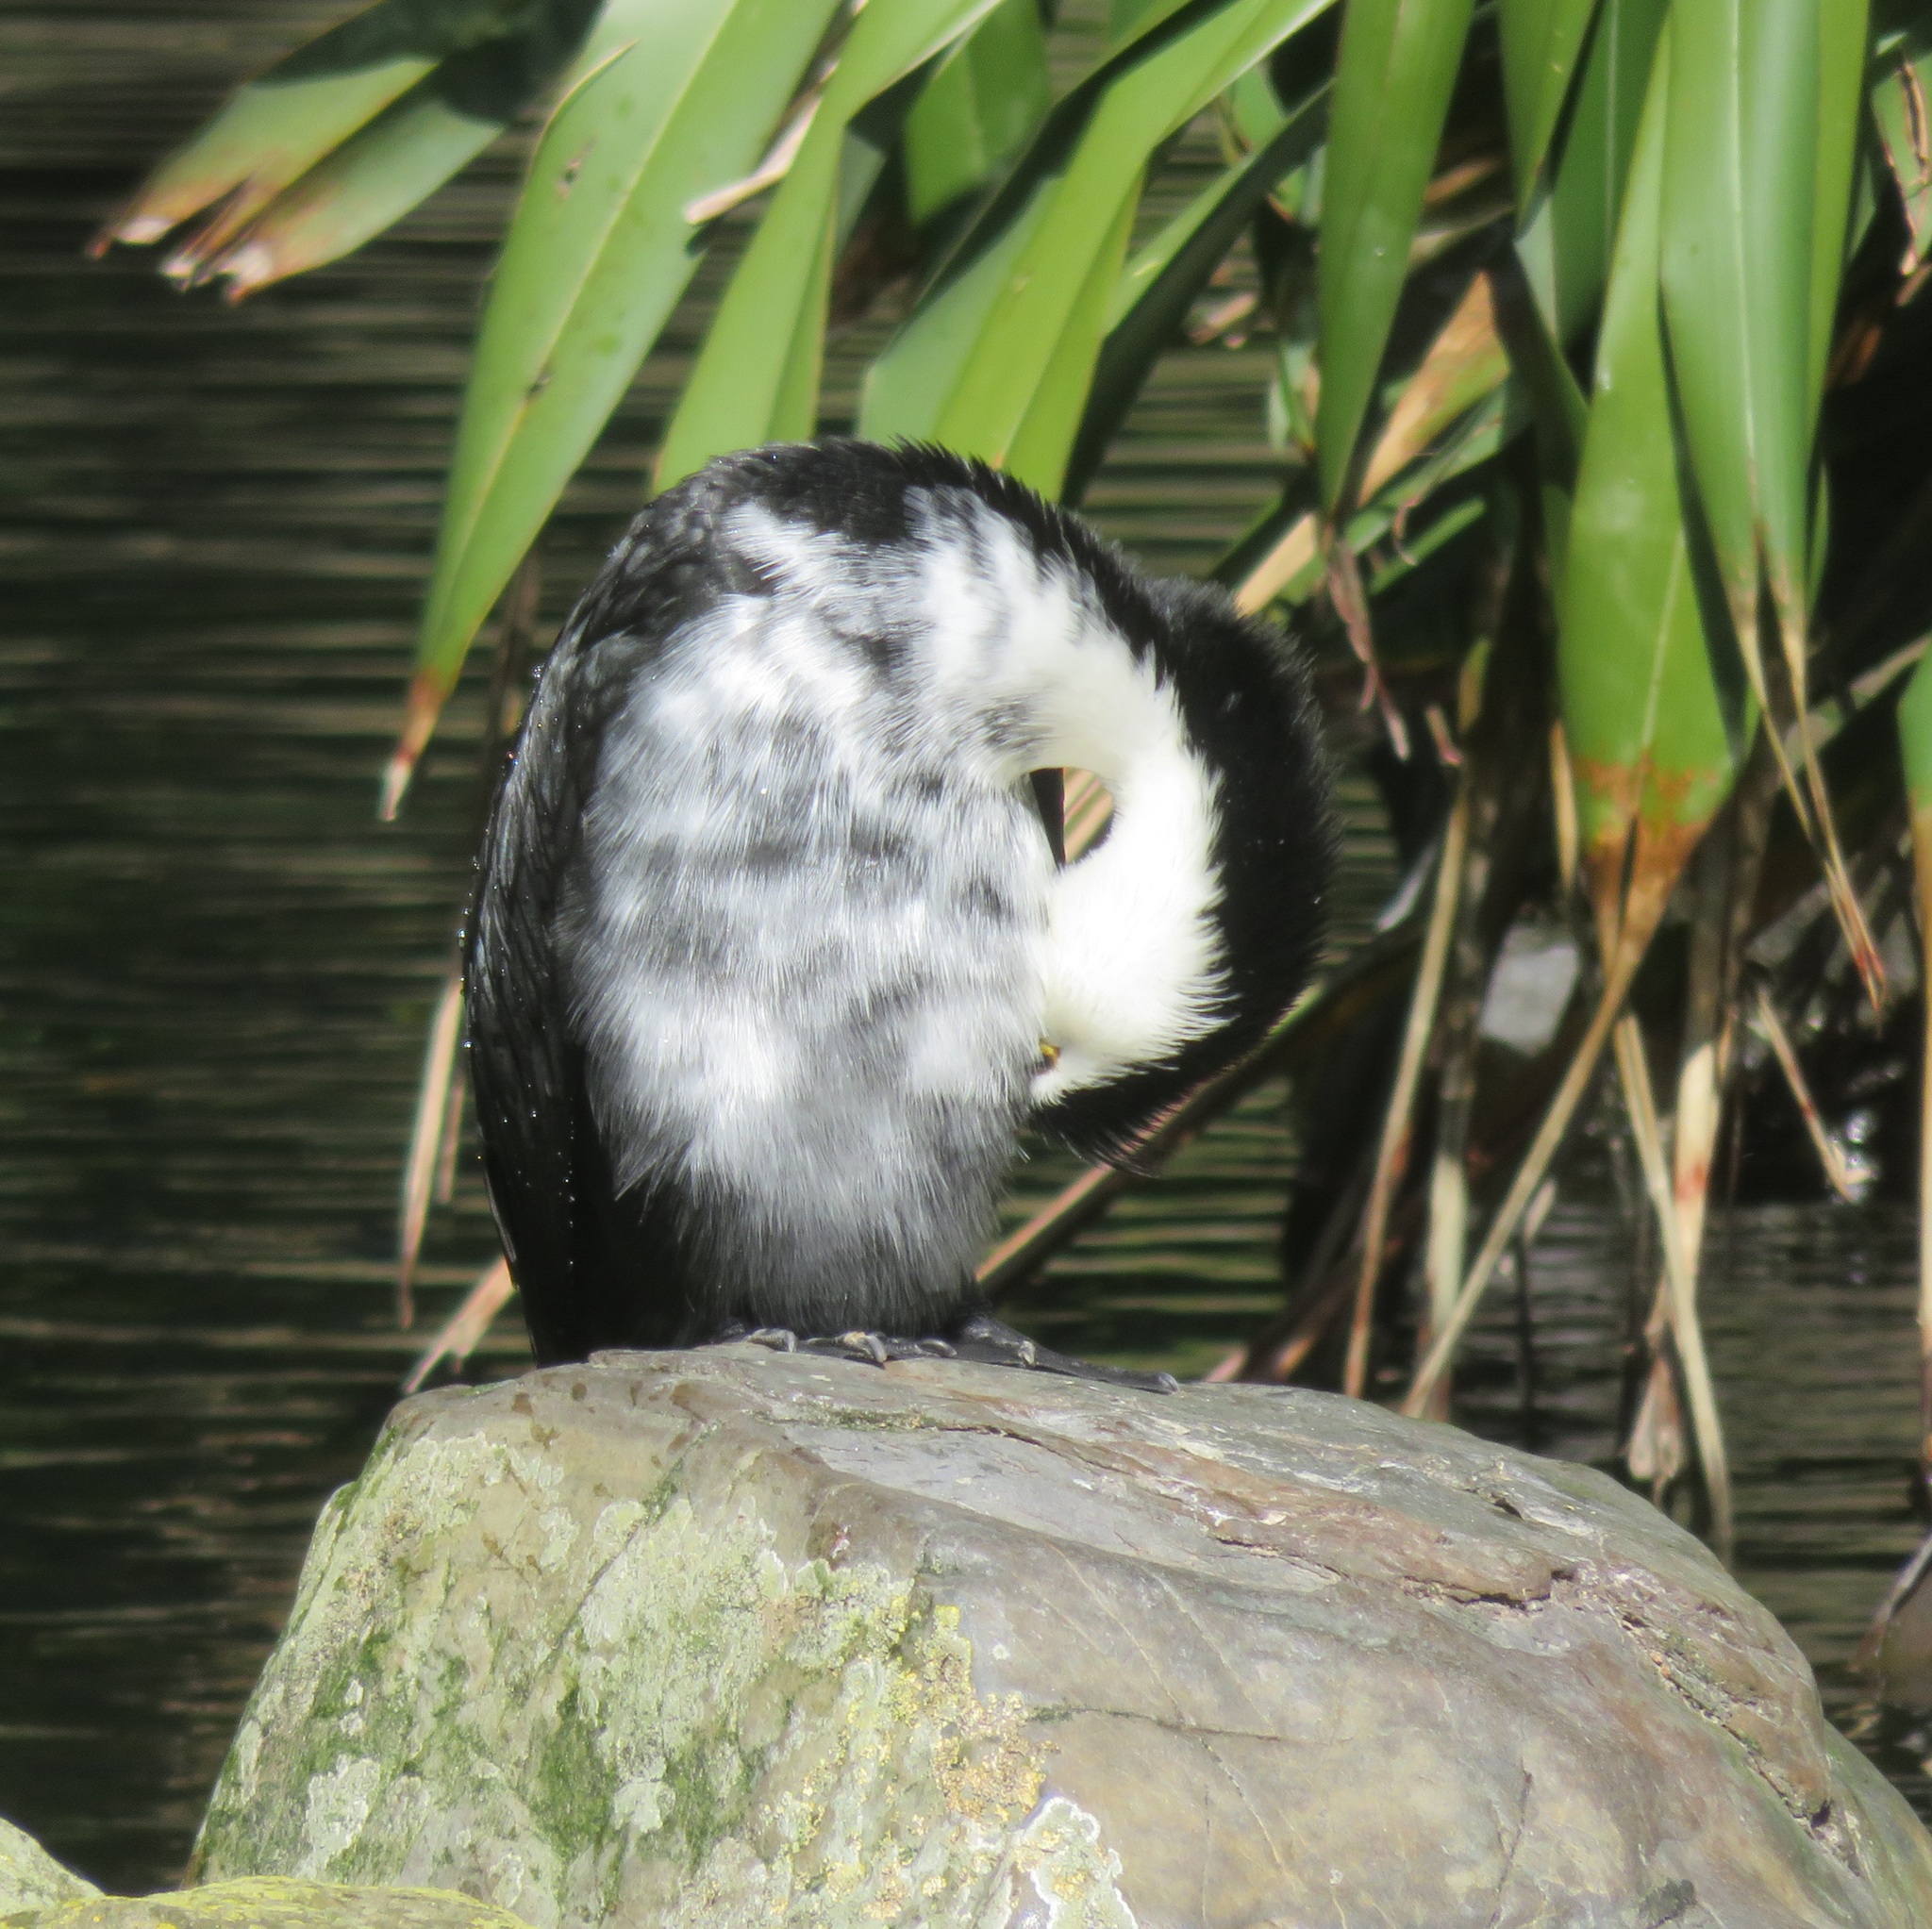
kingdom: Animalia
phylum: Chordata
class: Aves
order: Suliformes
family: Phalacrocoracidae
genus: Microcarbo
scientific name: Microcarbo melanoleucos
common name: Little pied cormorant
